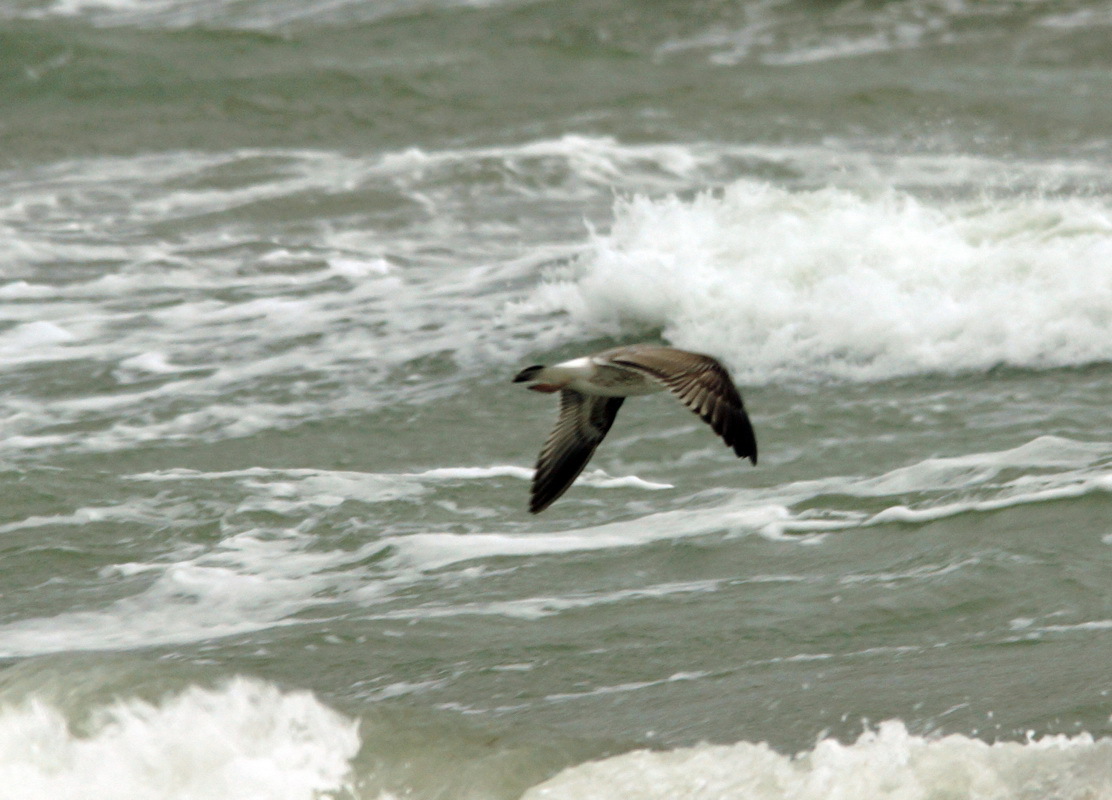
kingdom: Animalia
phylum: Chordata
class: Aves
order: Charadriiformes
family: Laridae
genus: Larus
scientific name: Larus canus
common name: Mew gull
